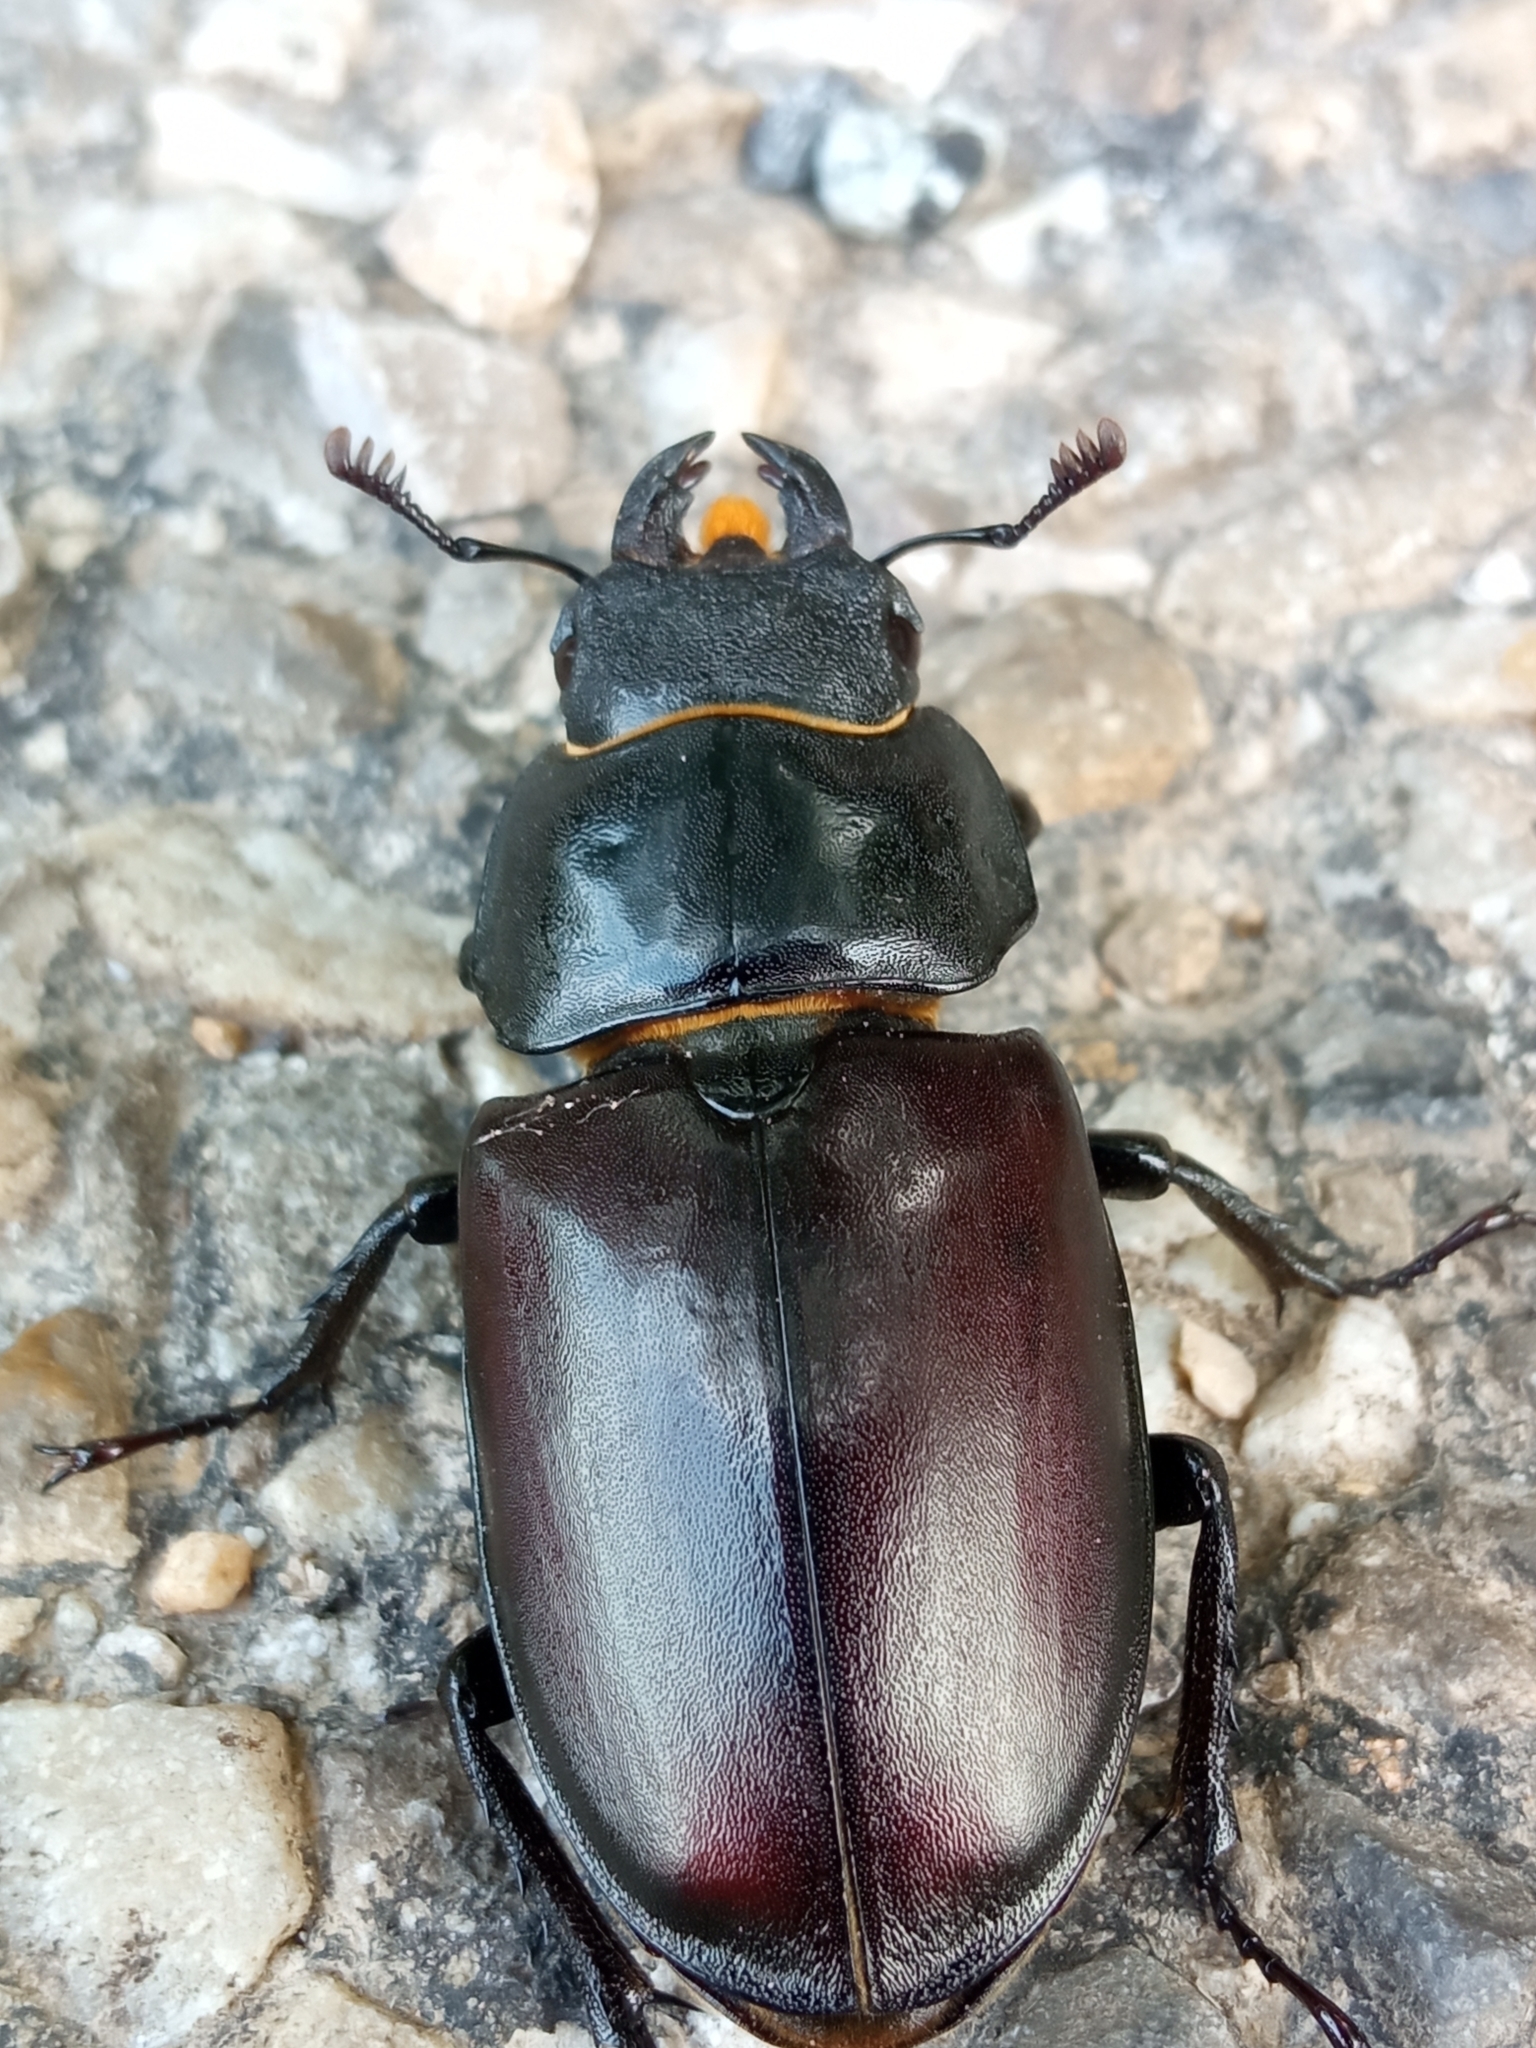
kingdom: Animalia
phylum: Arthropoda
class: Insecta
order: Coleoptera
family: Lucanidae
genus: Lucanus
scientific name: Lucanus cervus
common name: Stag beetle
